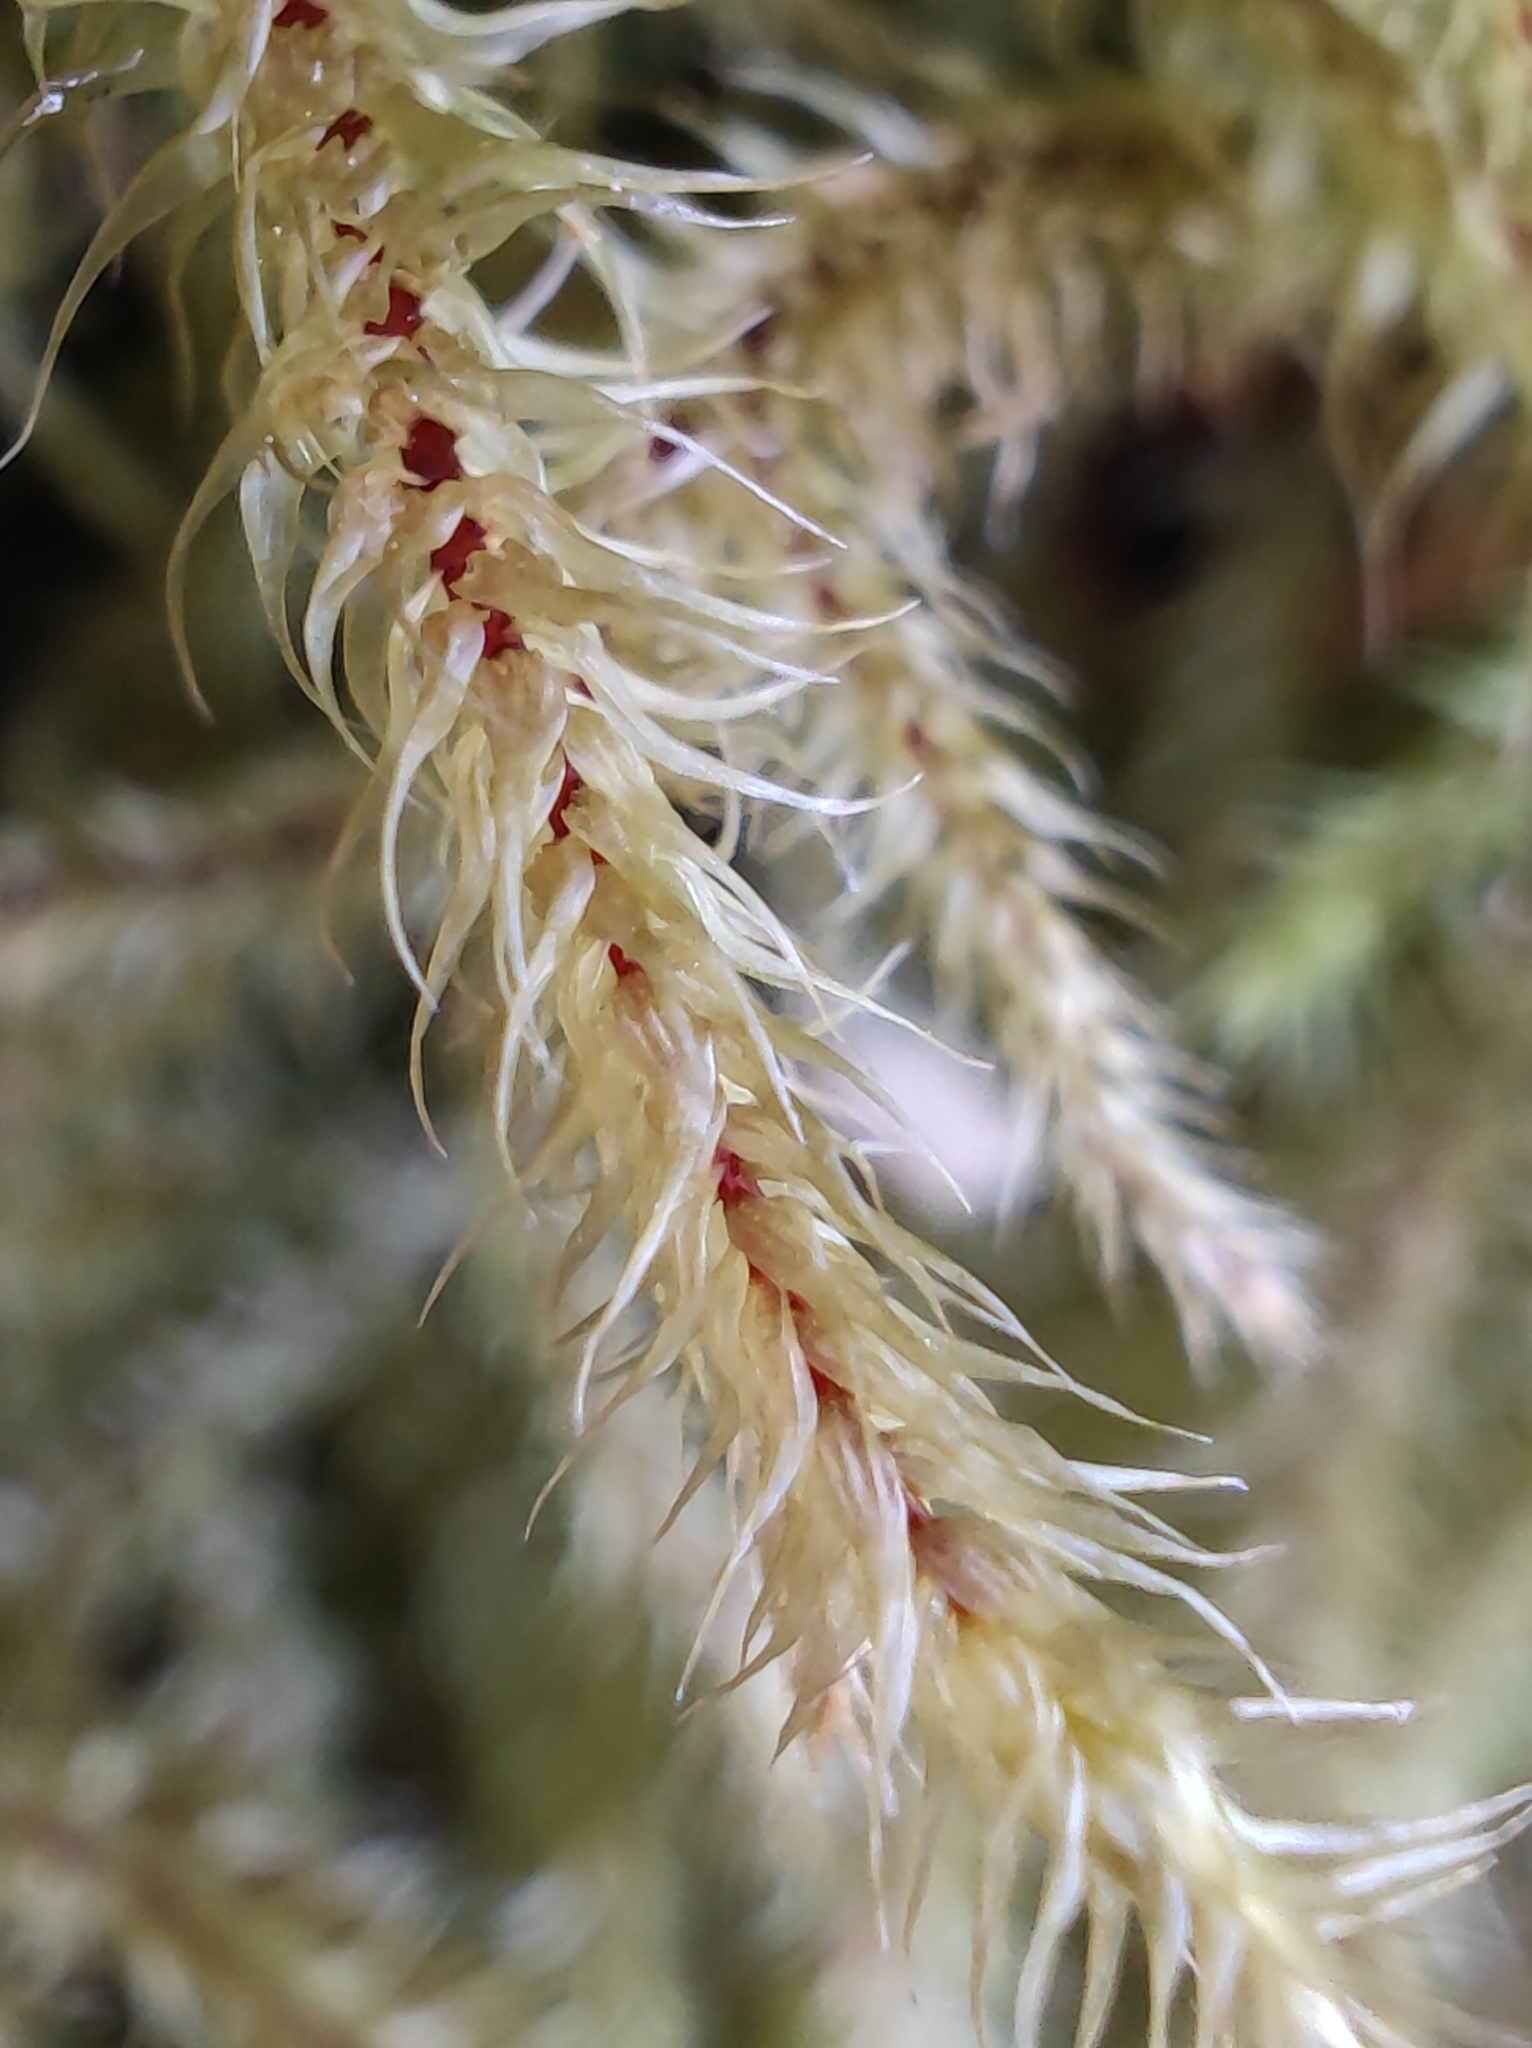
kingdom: Plantae
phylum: Bryophyta
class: Bryopsida
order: Hypnales
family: Hylocomiaceae
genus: Rhytidiadelphus
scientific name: Rhytidiadelphus loreus
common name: Lanky moss
